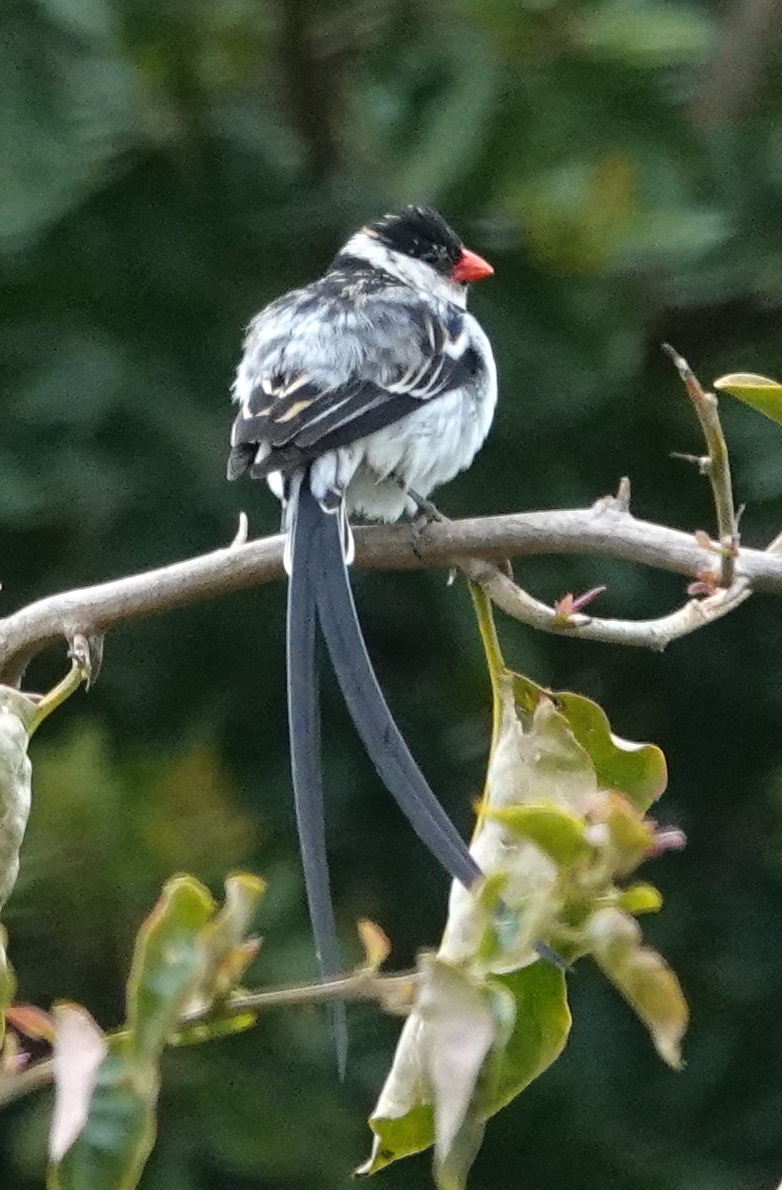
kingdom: Animalia
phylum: Chordata
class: Aves
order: Passeriformes
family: Viduidae
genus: Vidua
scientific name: Vidua macroura
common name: Pin-tailed whydah
